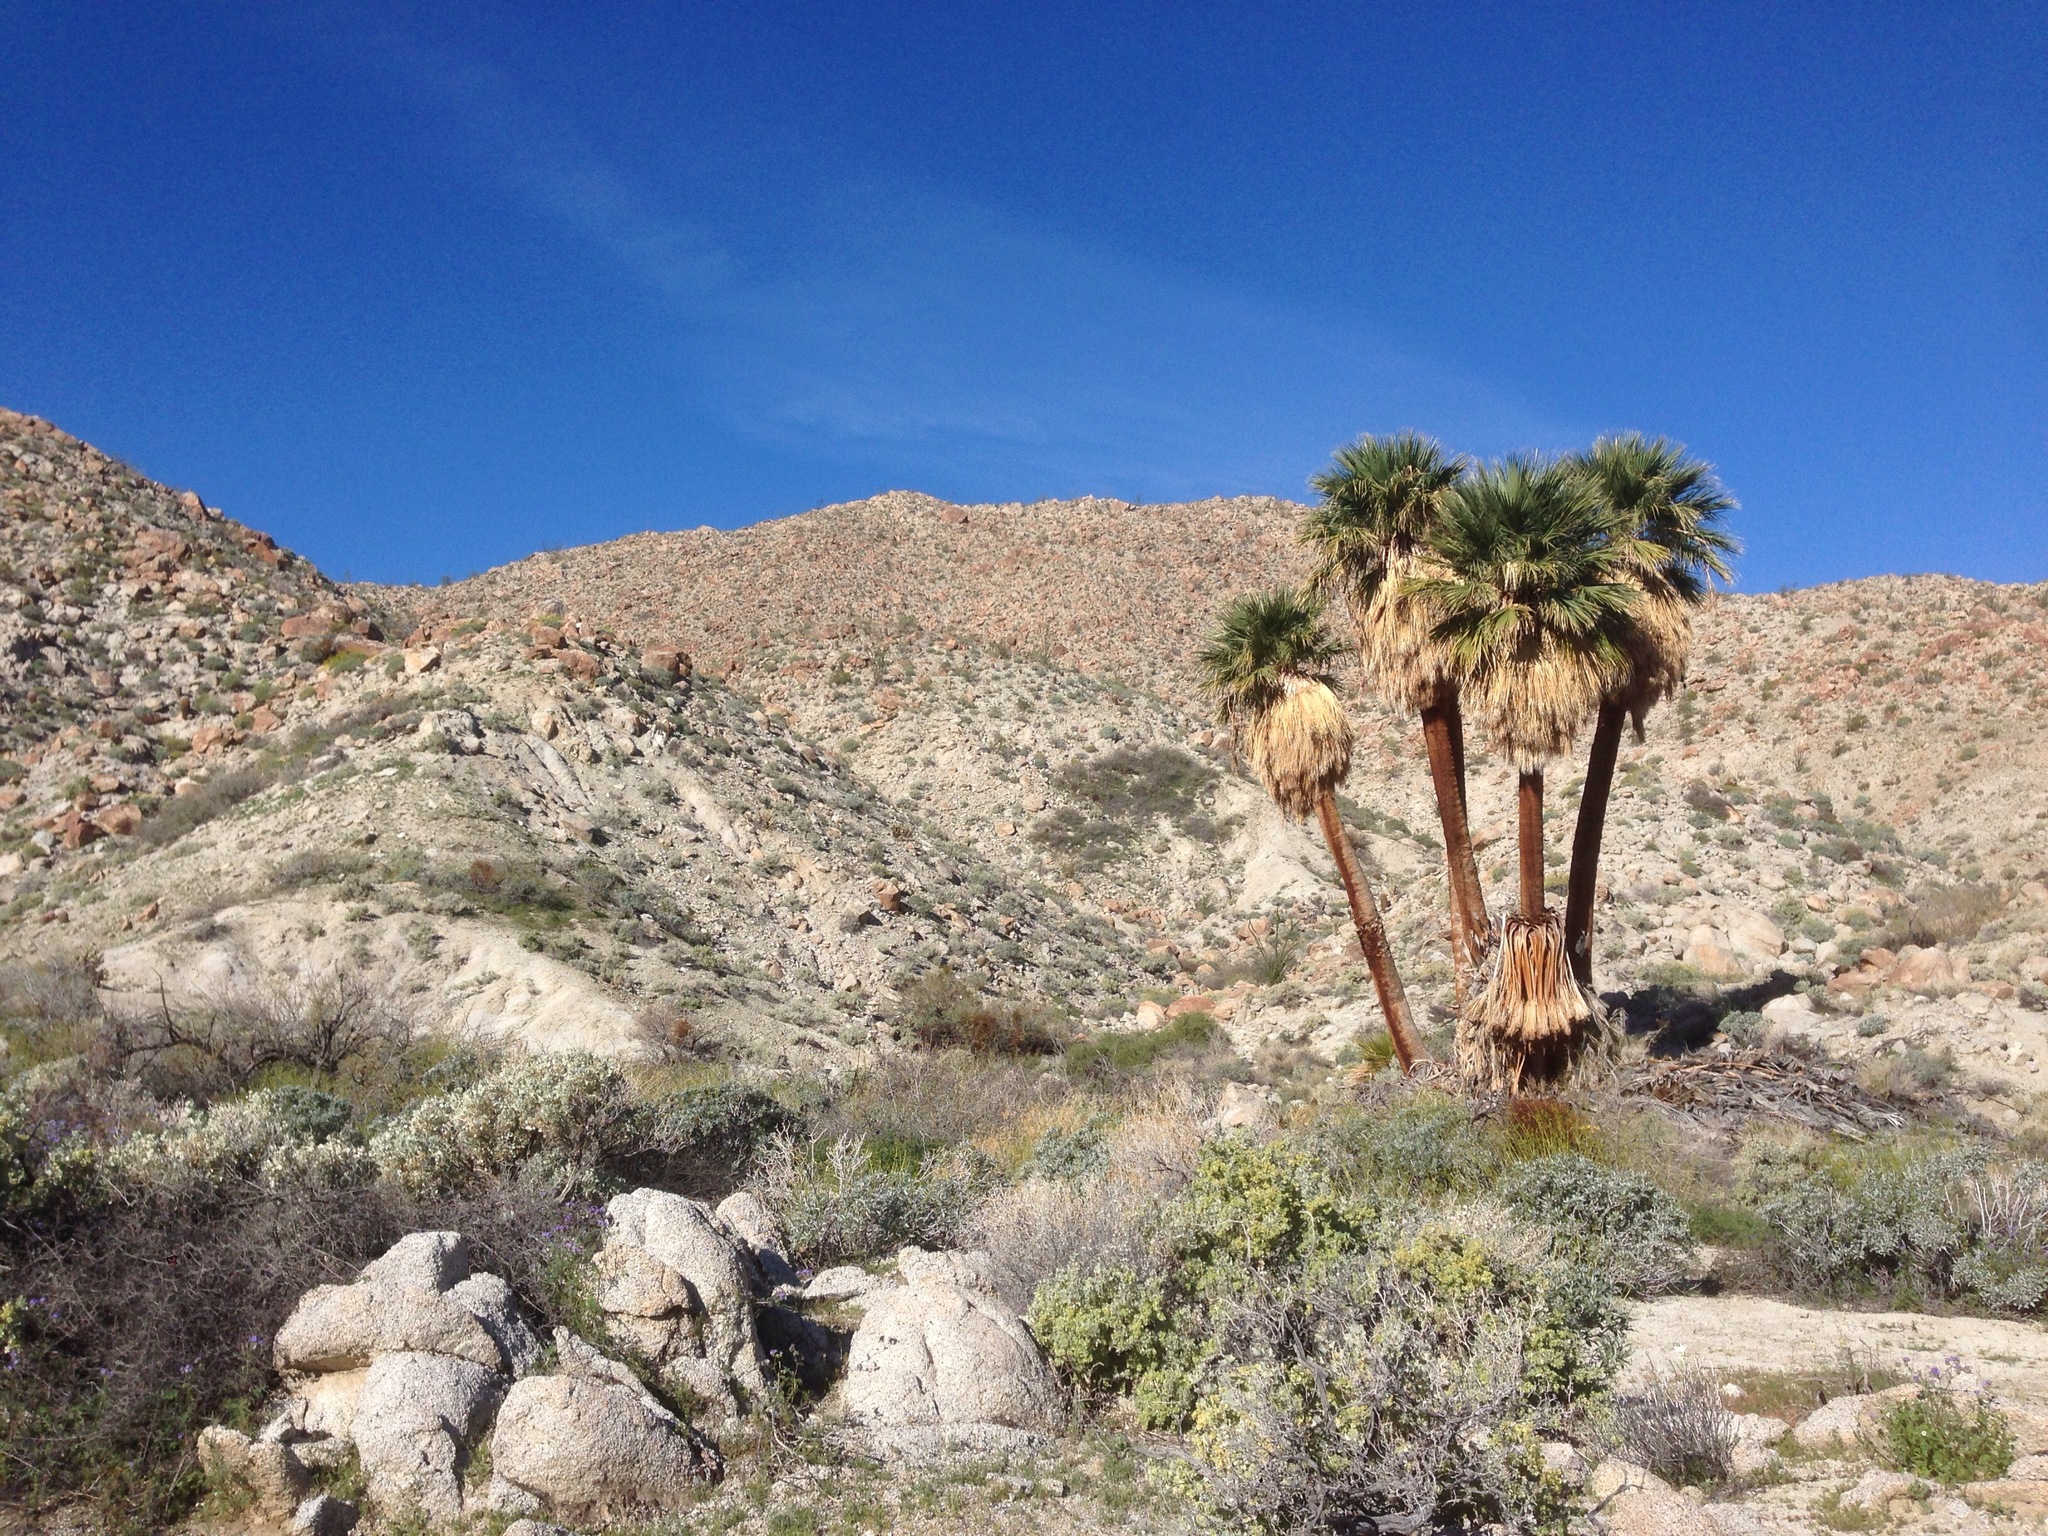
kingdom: Plantae
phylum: Tracheophyta
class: Liliopsida
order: Arecales
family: Arecaceae
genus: Washingtonia
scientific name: Washingtonia filifera
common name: California fan palm
